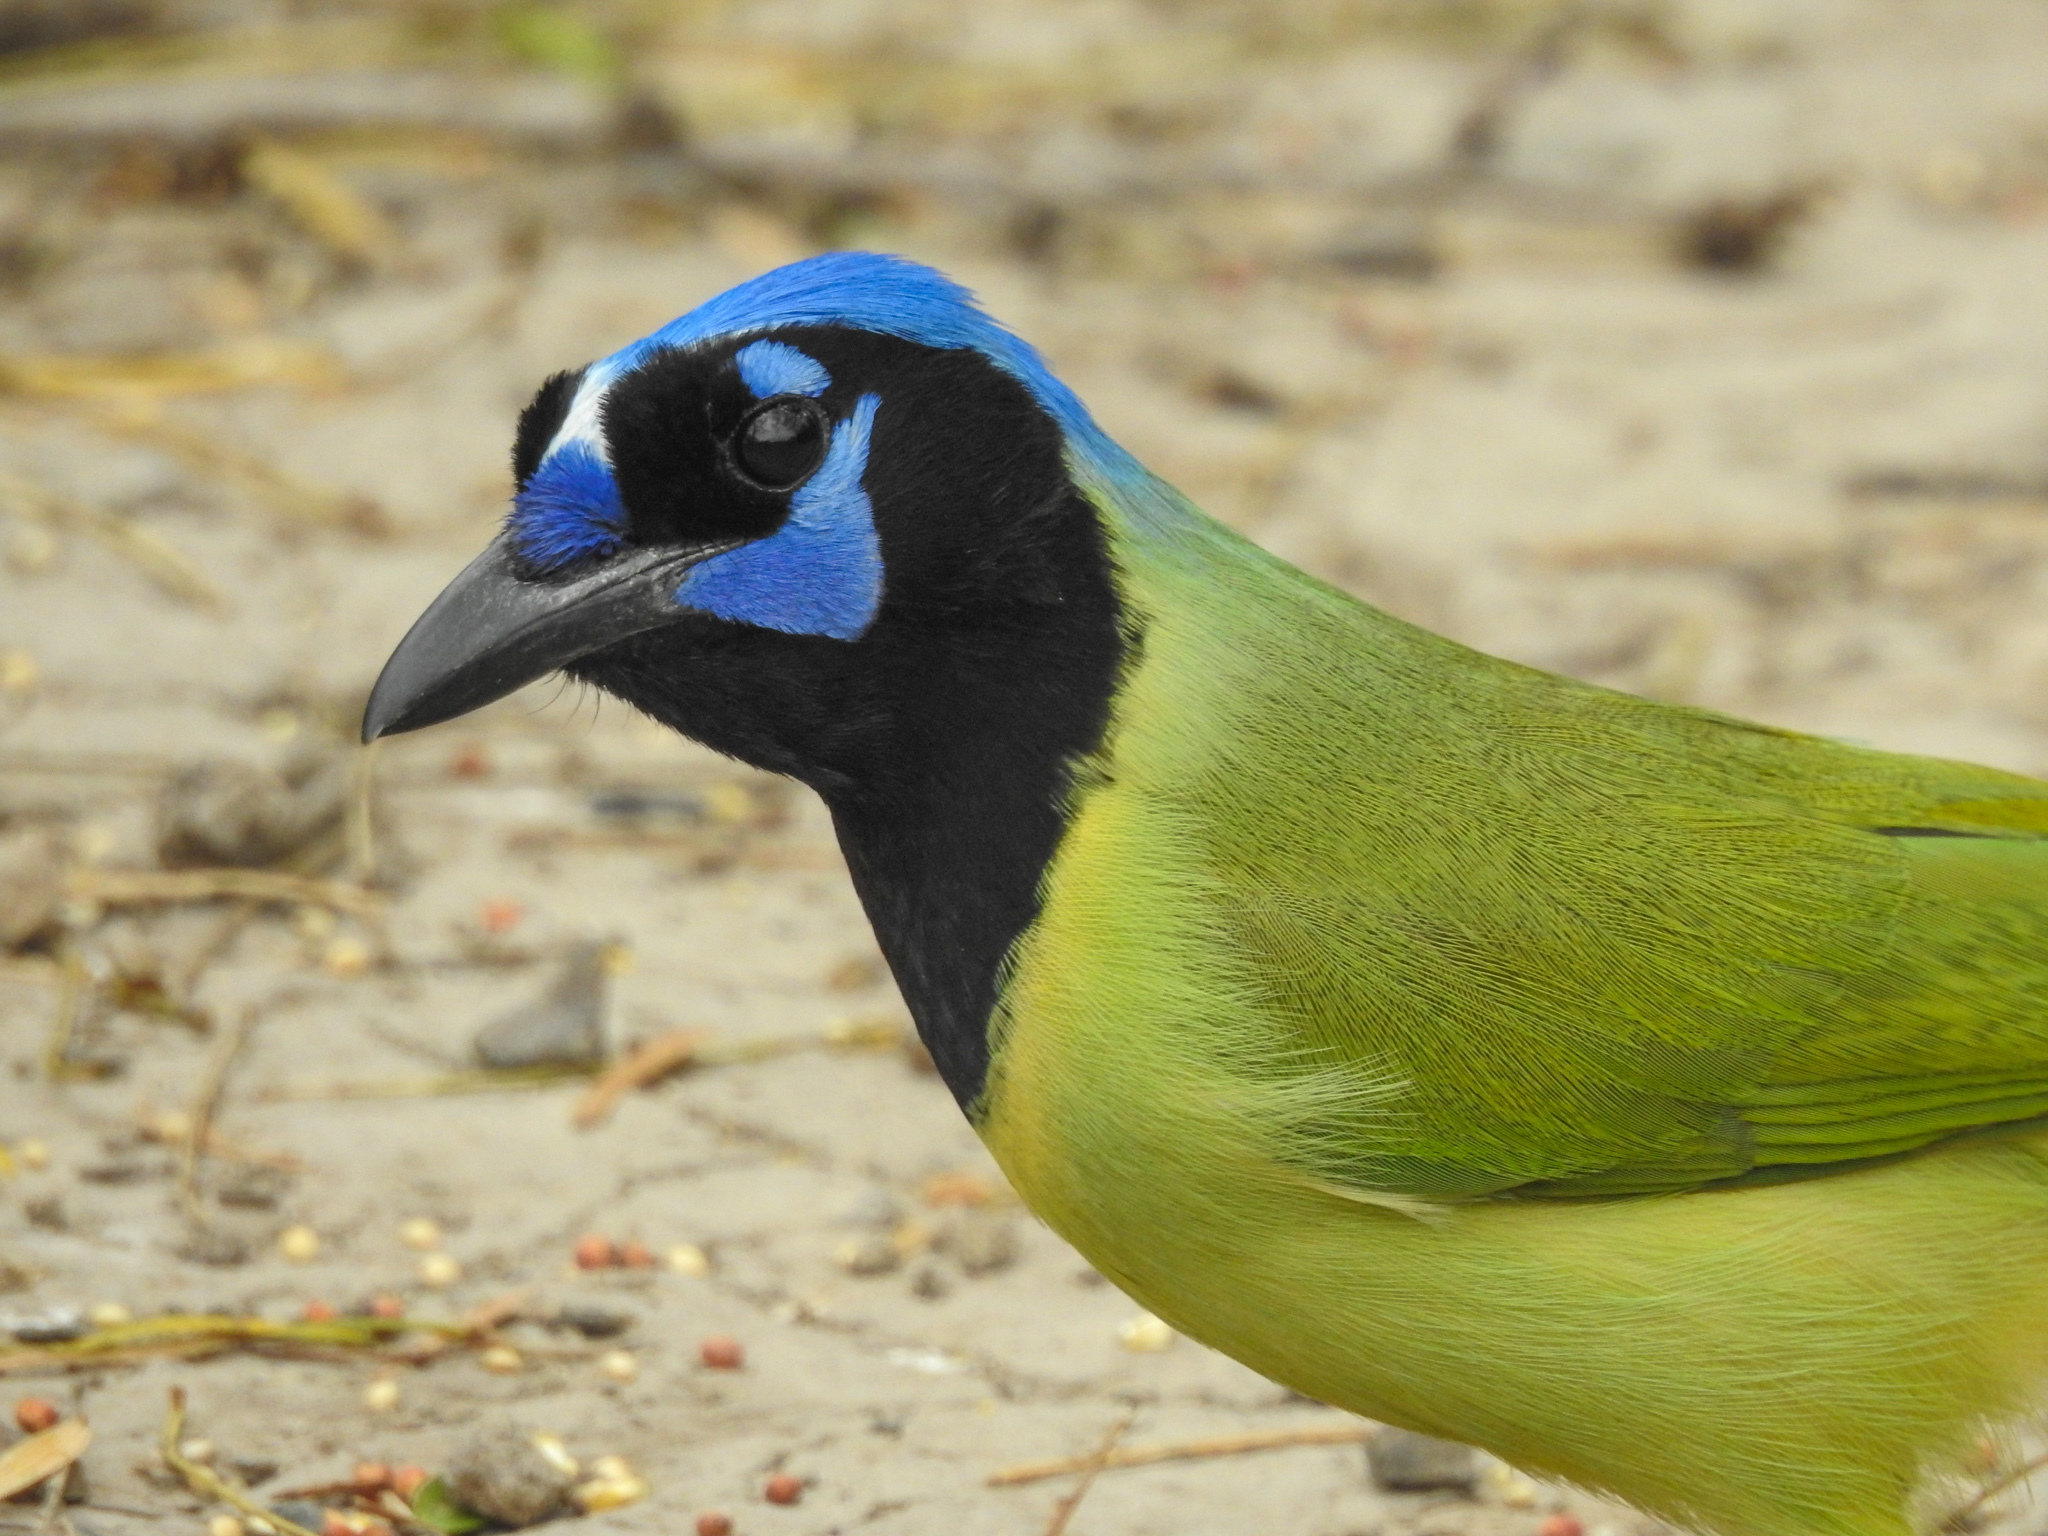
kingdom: Animalia
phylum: Chordata
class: Aves
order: Passeriformes
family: Corvidae
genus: Cyanocorax
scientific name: Cyanocorax yncas
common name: Green jay
